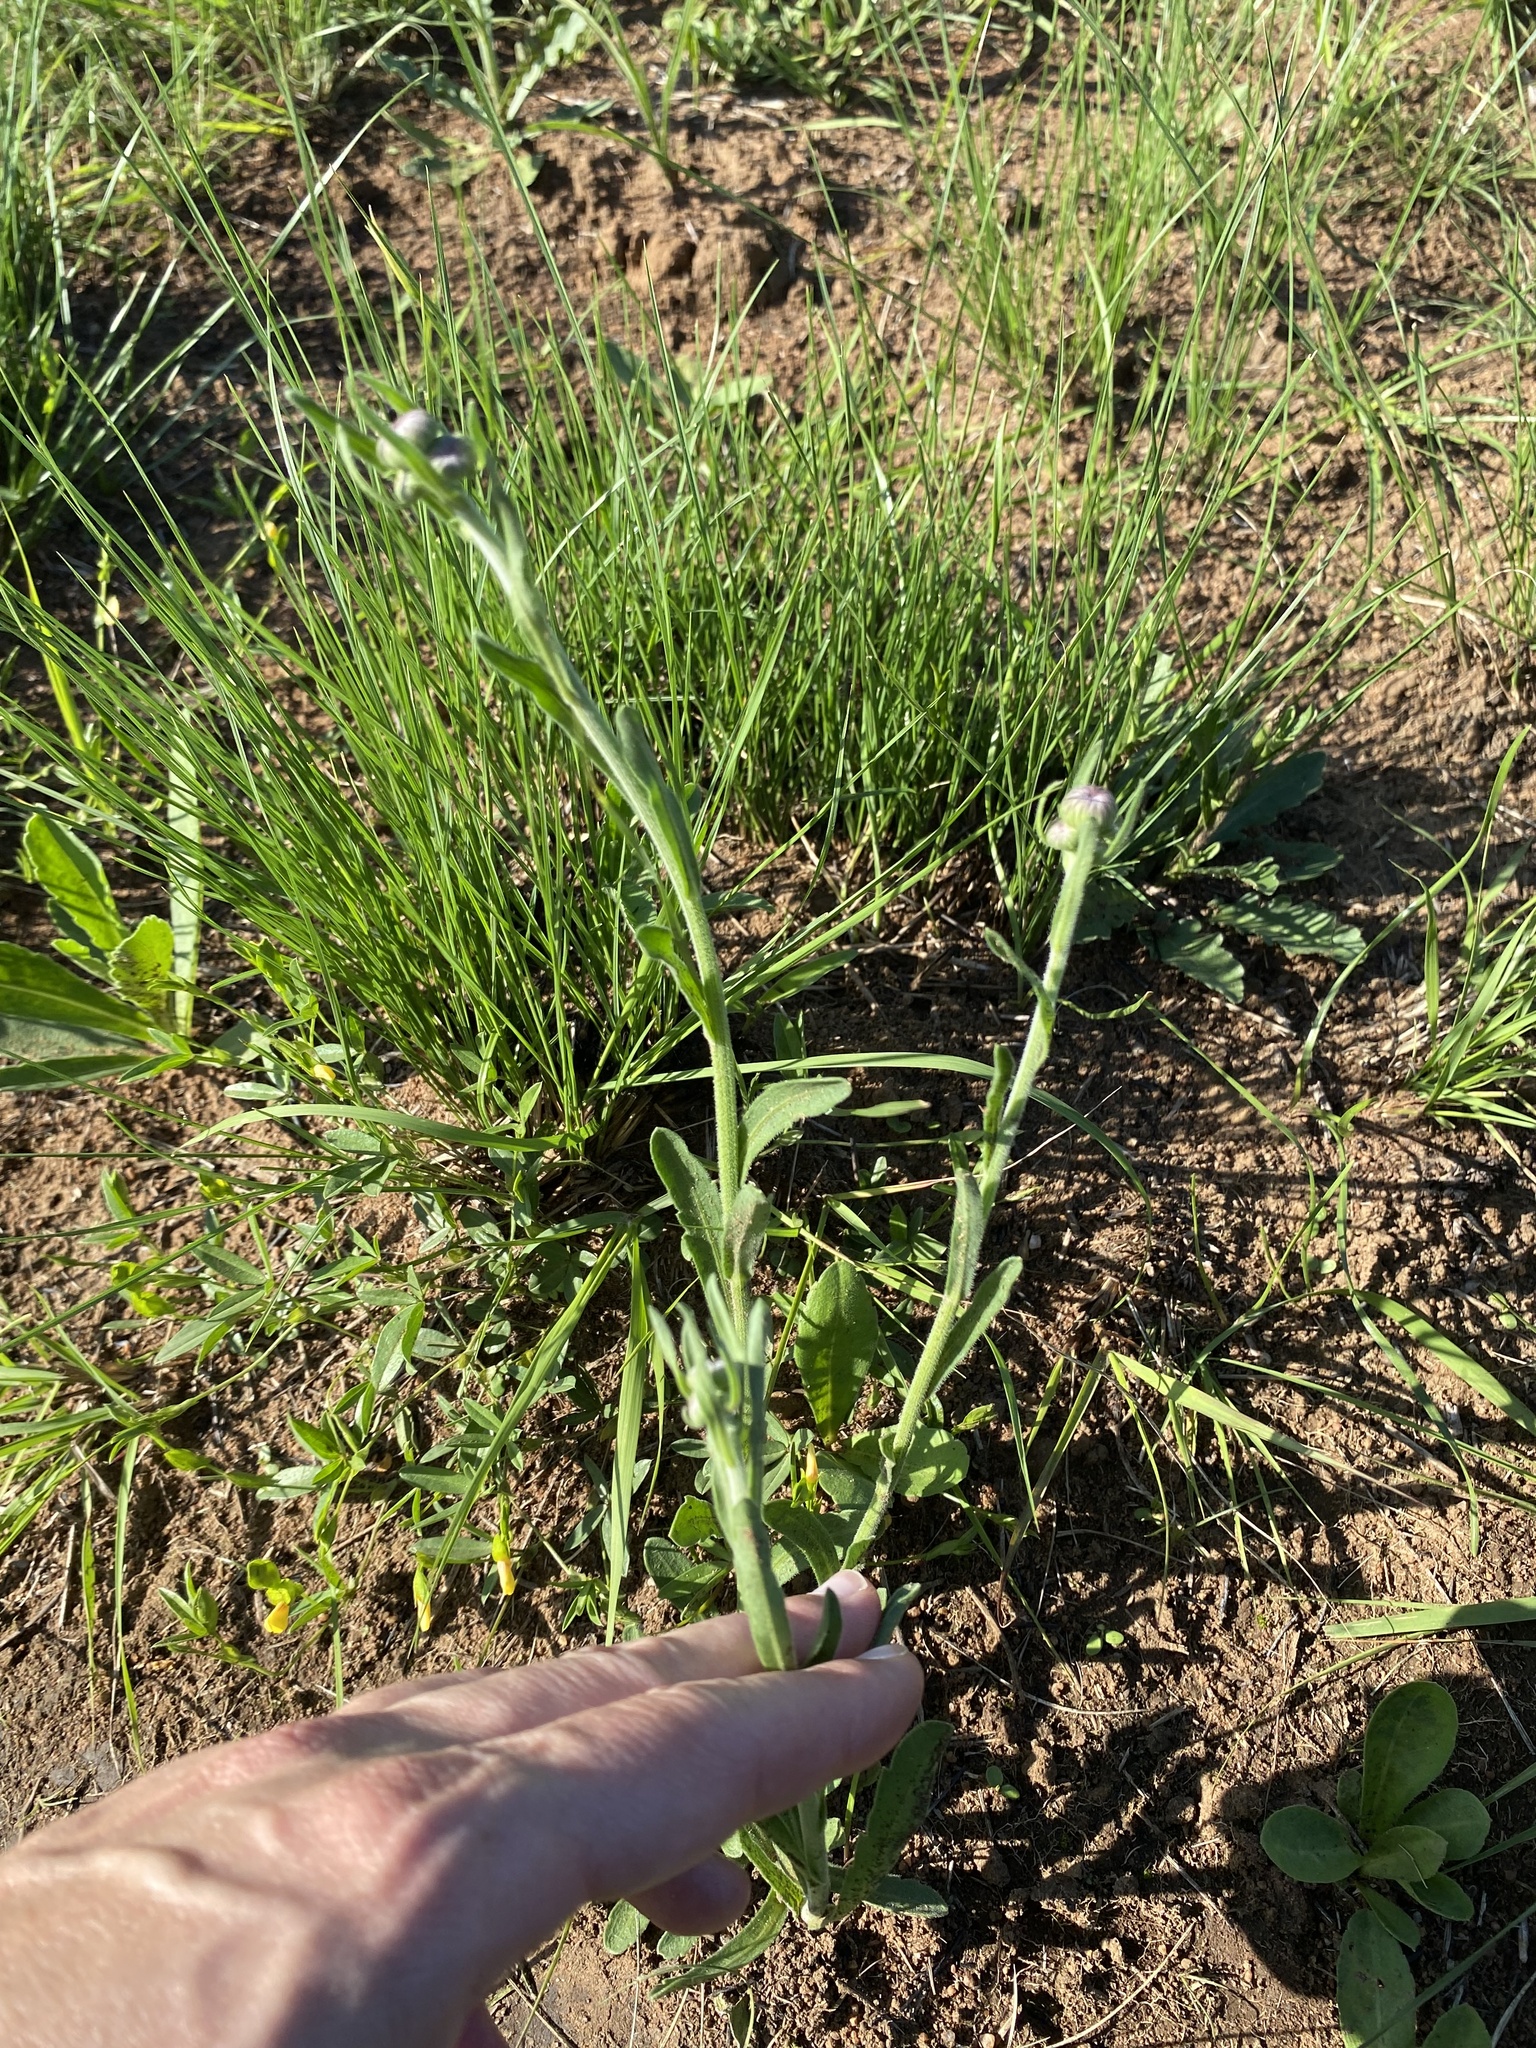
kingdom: Plantae
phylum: Tracheophyta
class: Magnoliopsida
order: Asterales
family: Asteraceae
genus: Erigeron
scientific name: Erigeron primulifolius
